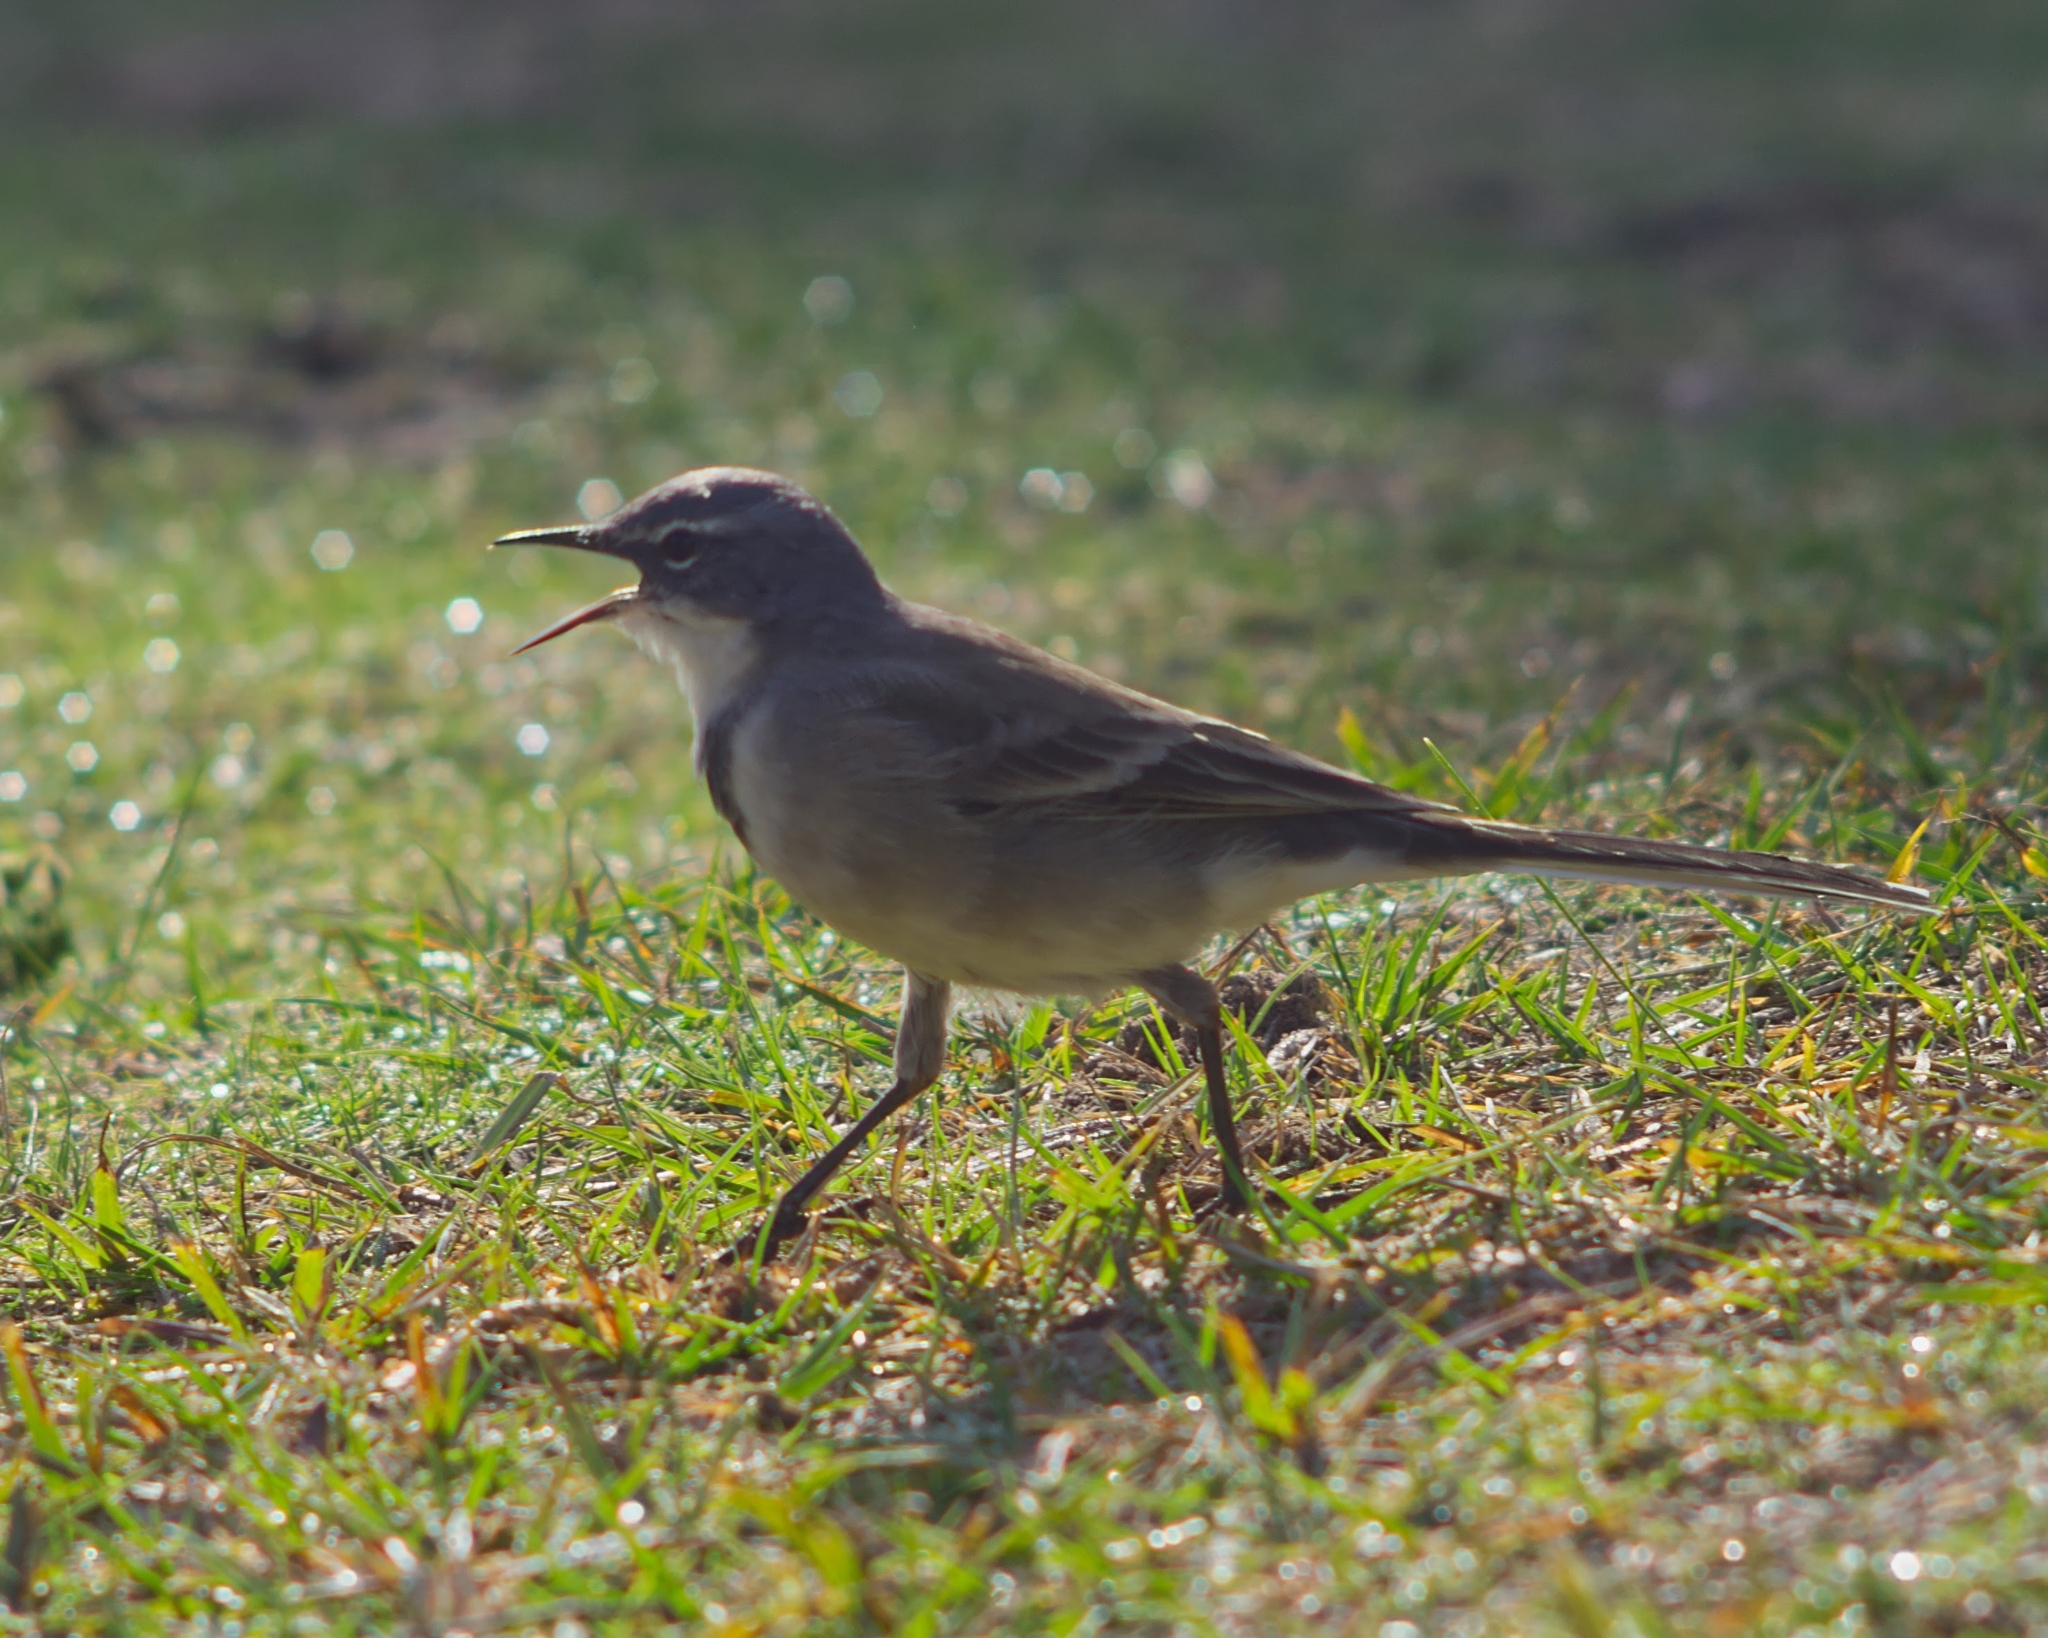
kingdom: Animalia
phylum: Chordata
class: Aves
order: Passeriformes
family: Motacillidae
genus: Motacilla
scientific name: Motacilla capensis
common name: Cape wagtail
